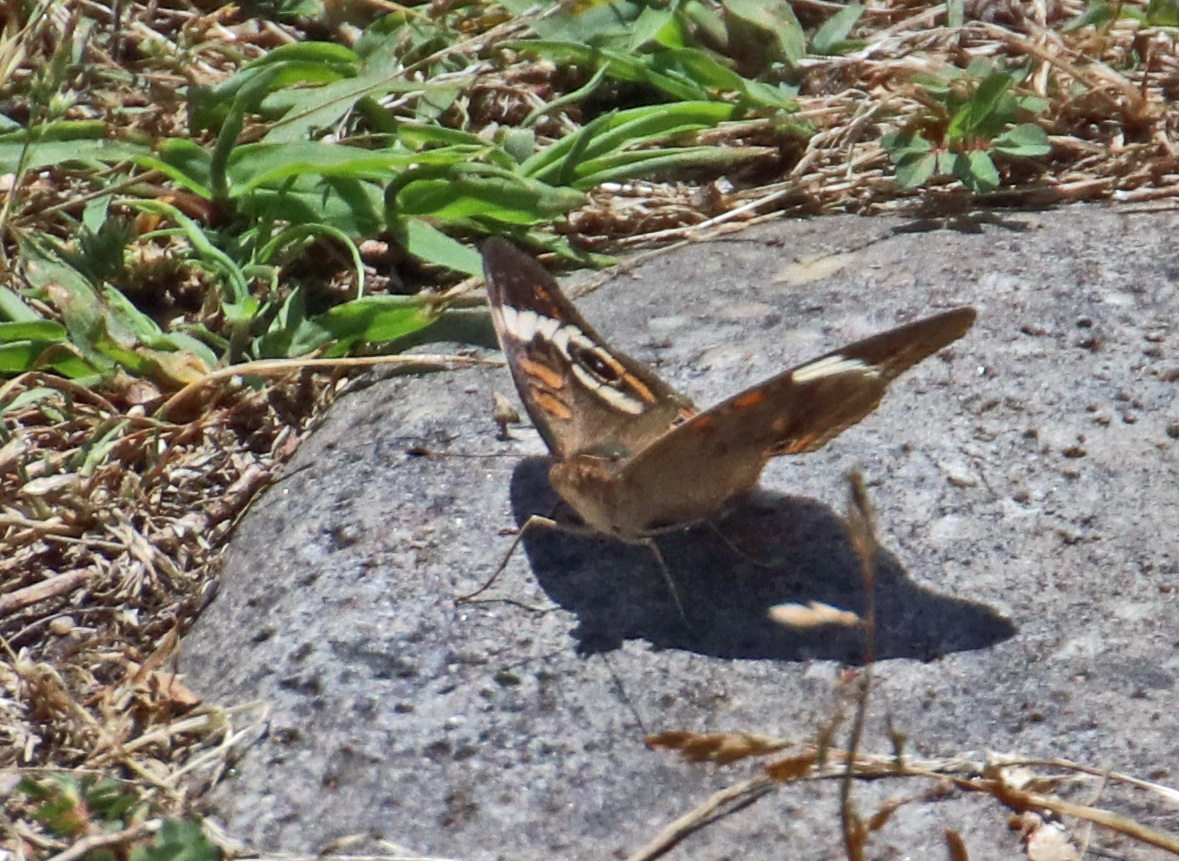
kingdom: Animalia
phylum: Arthropoda
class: Insecta
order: Lepidoptera
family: Nymphalidae
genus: Junonia
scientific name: Junonia coenia
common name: Common buckeye
